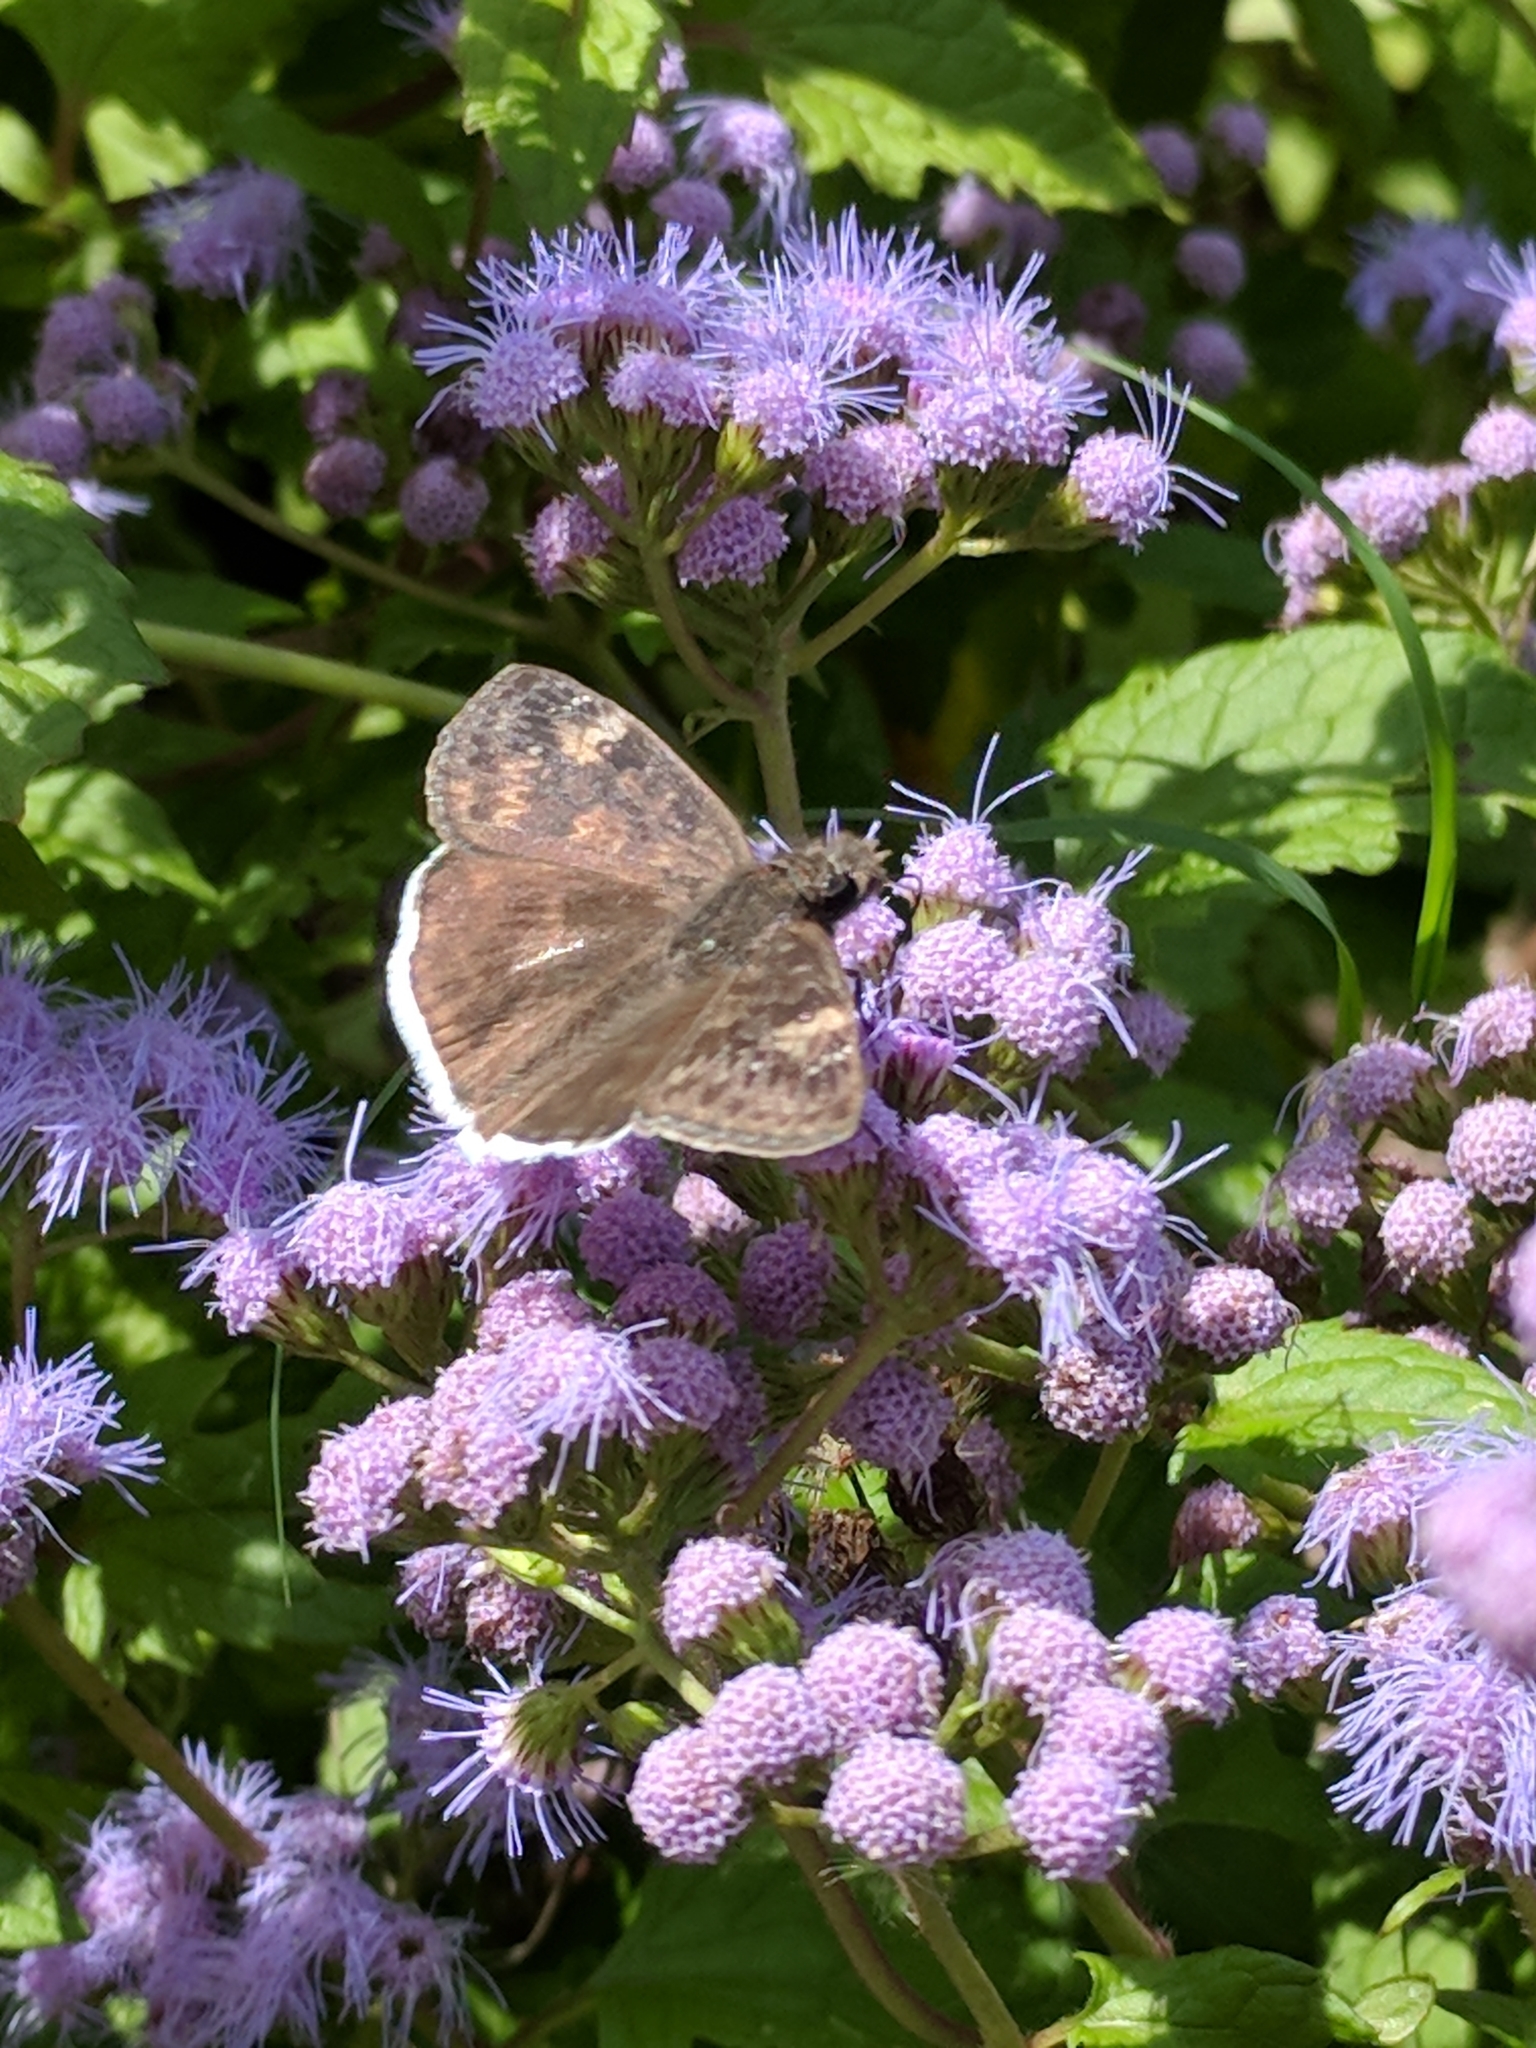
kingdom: Animalia
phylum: Arthropoda
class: Insecta
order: Lepidoptera
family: Hesperiidae
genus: Erynnis
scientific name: Erynnis funeralis
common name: Funereal duskywing
